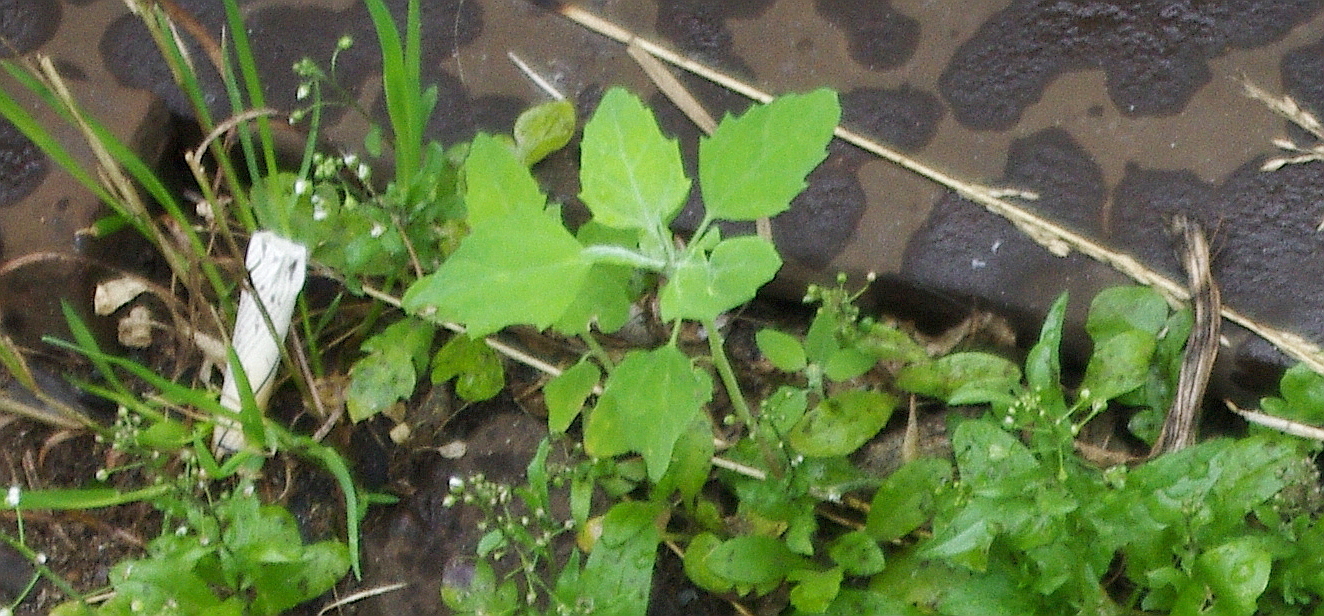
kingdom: Plantae
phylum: Tracheophyta
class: Magnoliopsida
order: Caryophyllales
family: Amaranthaceae
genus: Chenopodium
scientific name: Chenopodium album
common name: Fat-hen
